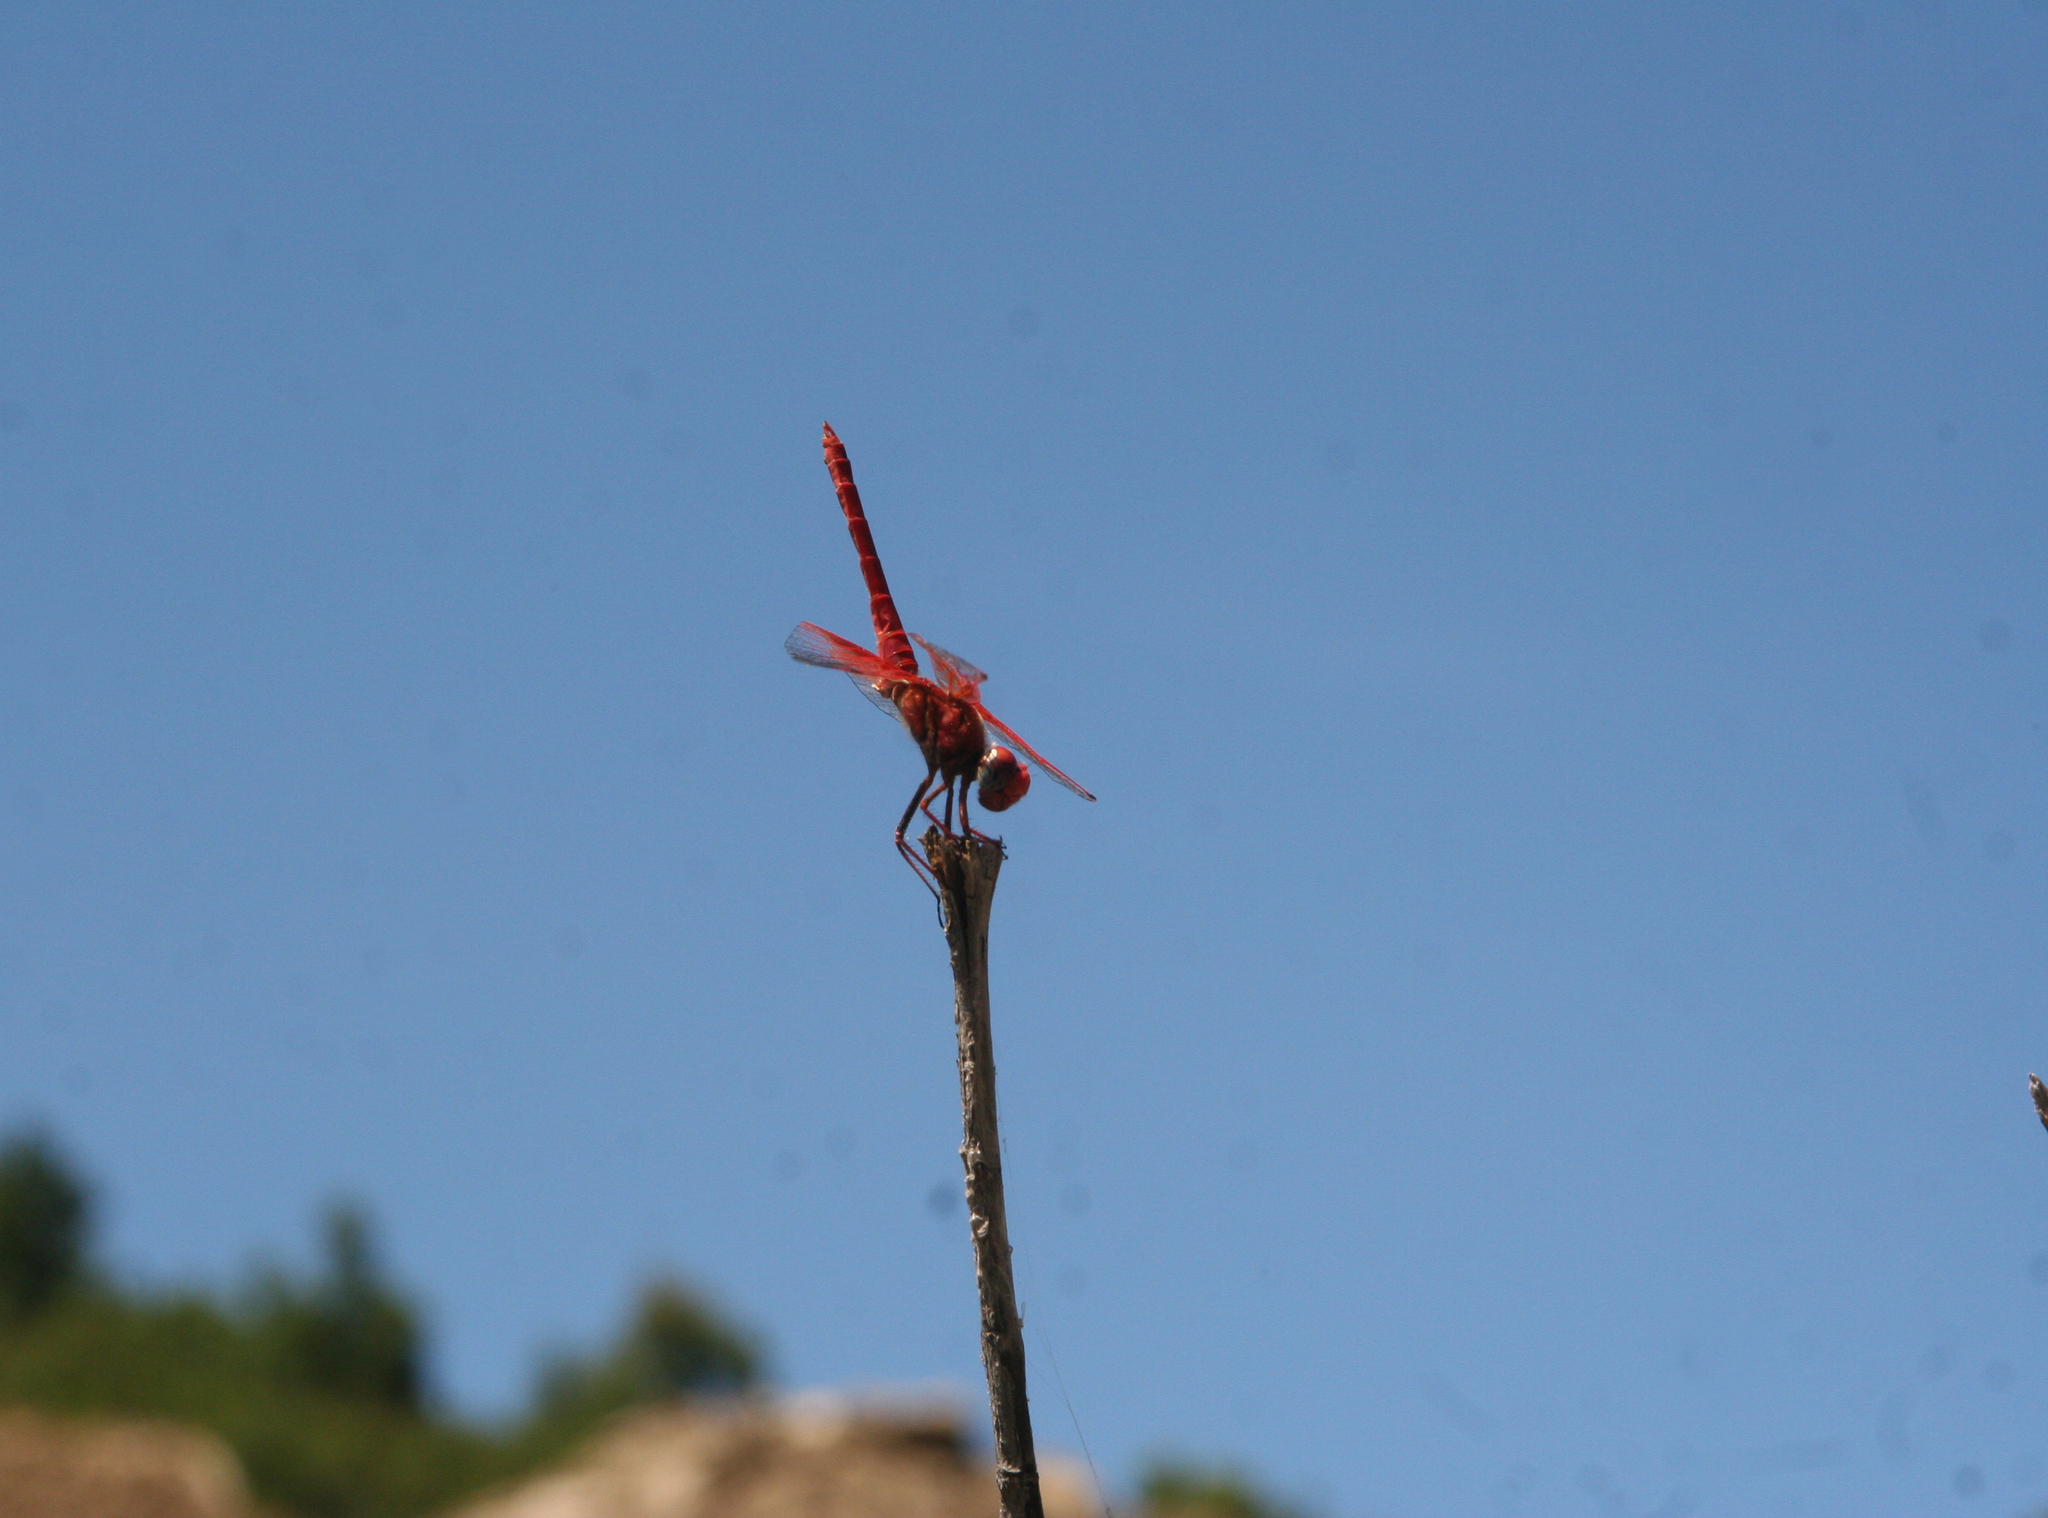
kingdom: Animalia
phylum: Arthropoda
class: Insecta
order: Odonata
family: Libellulidae
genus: Trithemis
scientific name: Trithemis kirbyi
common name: Kirby's dropwing
